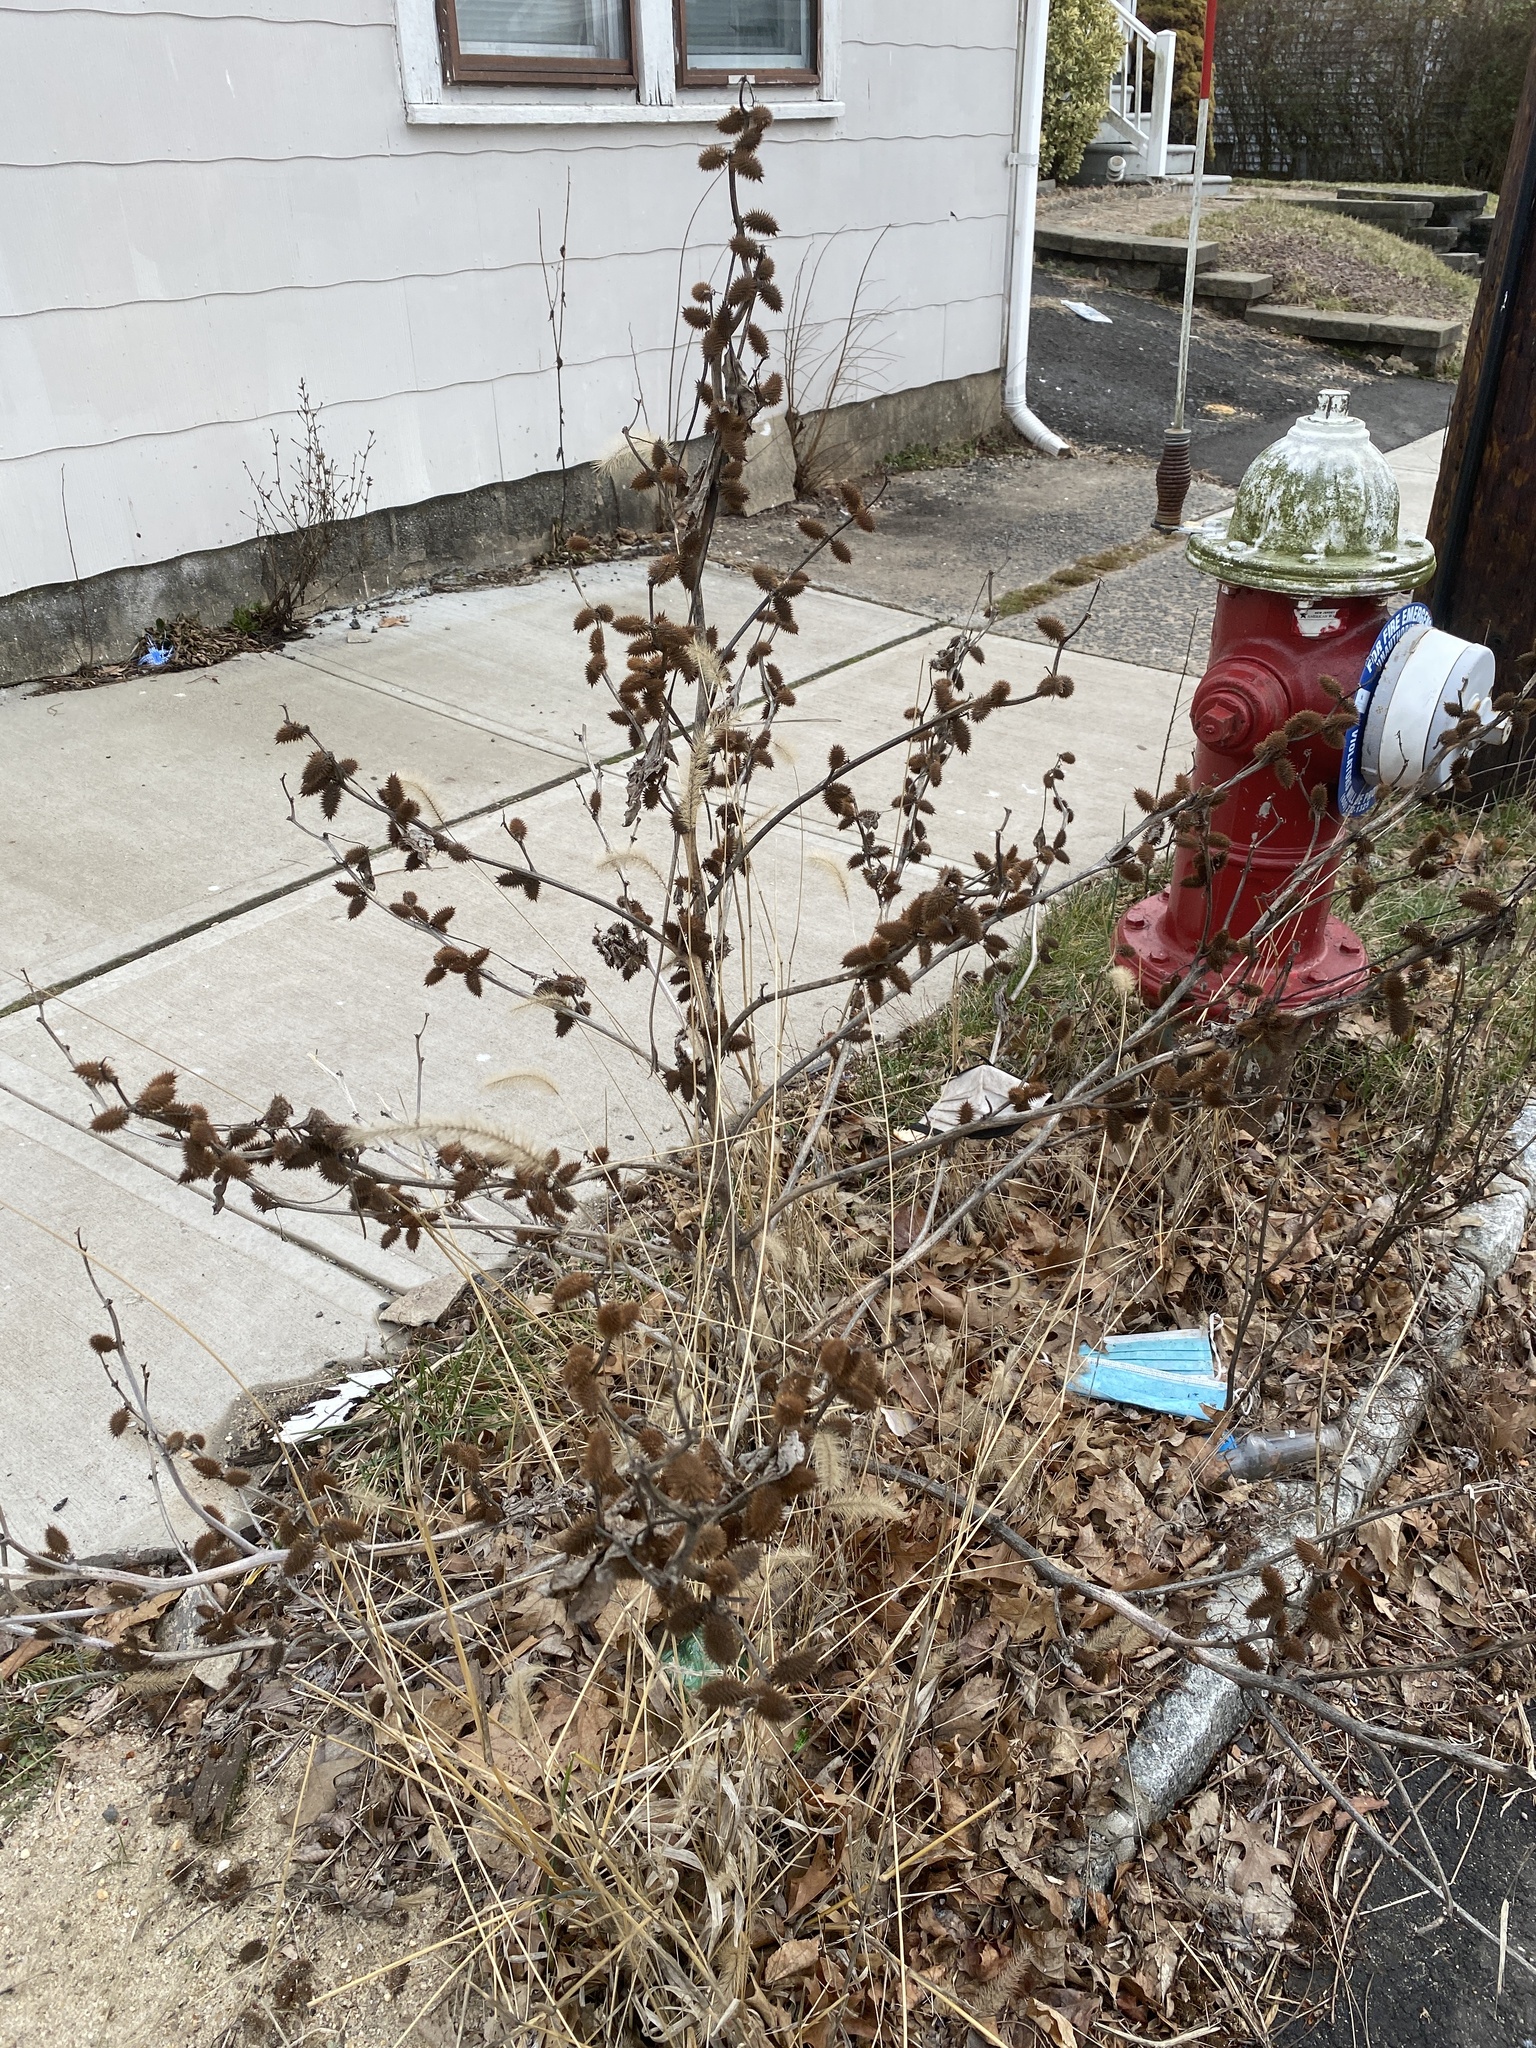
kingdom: Plantae
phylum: Tracheophyta
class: Magnoliopsida
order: Asterales
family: Asteraceae
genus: Xanthium
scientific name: Xanthium strumarium
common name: Rough cocklebur
